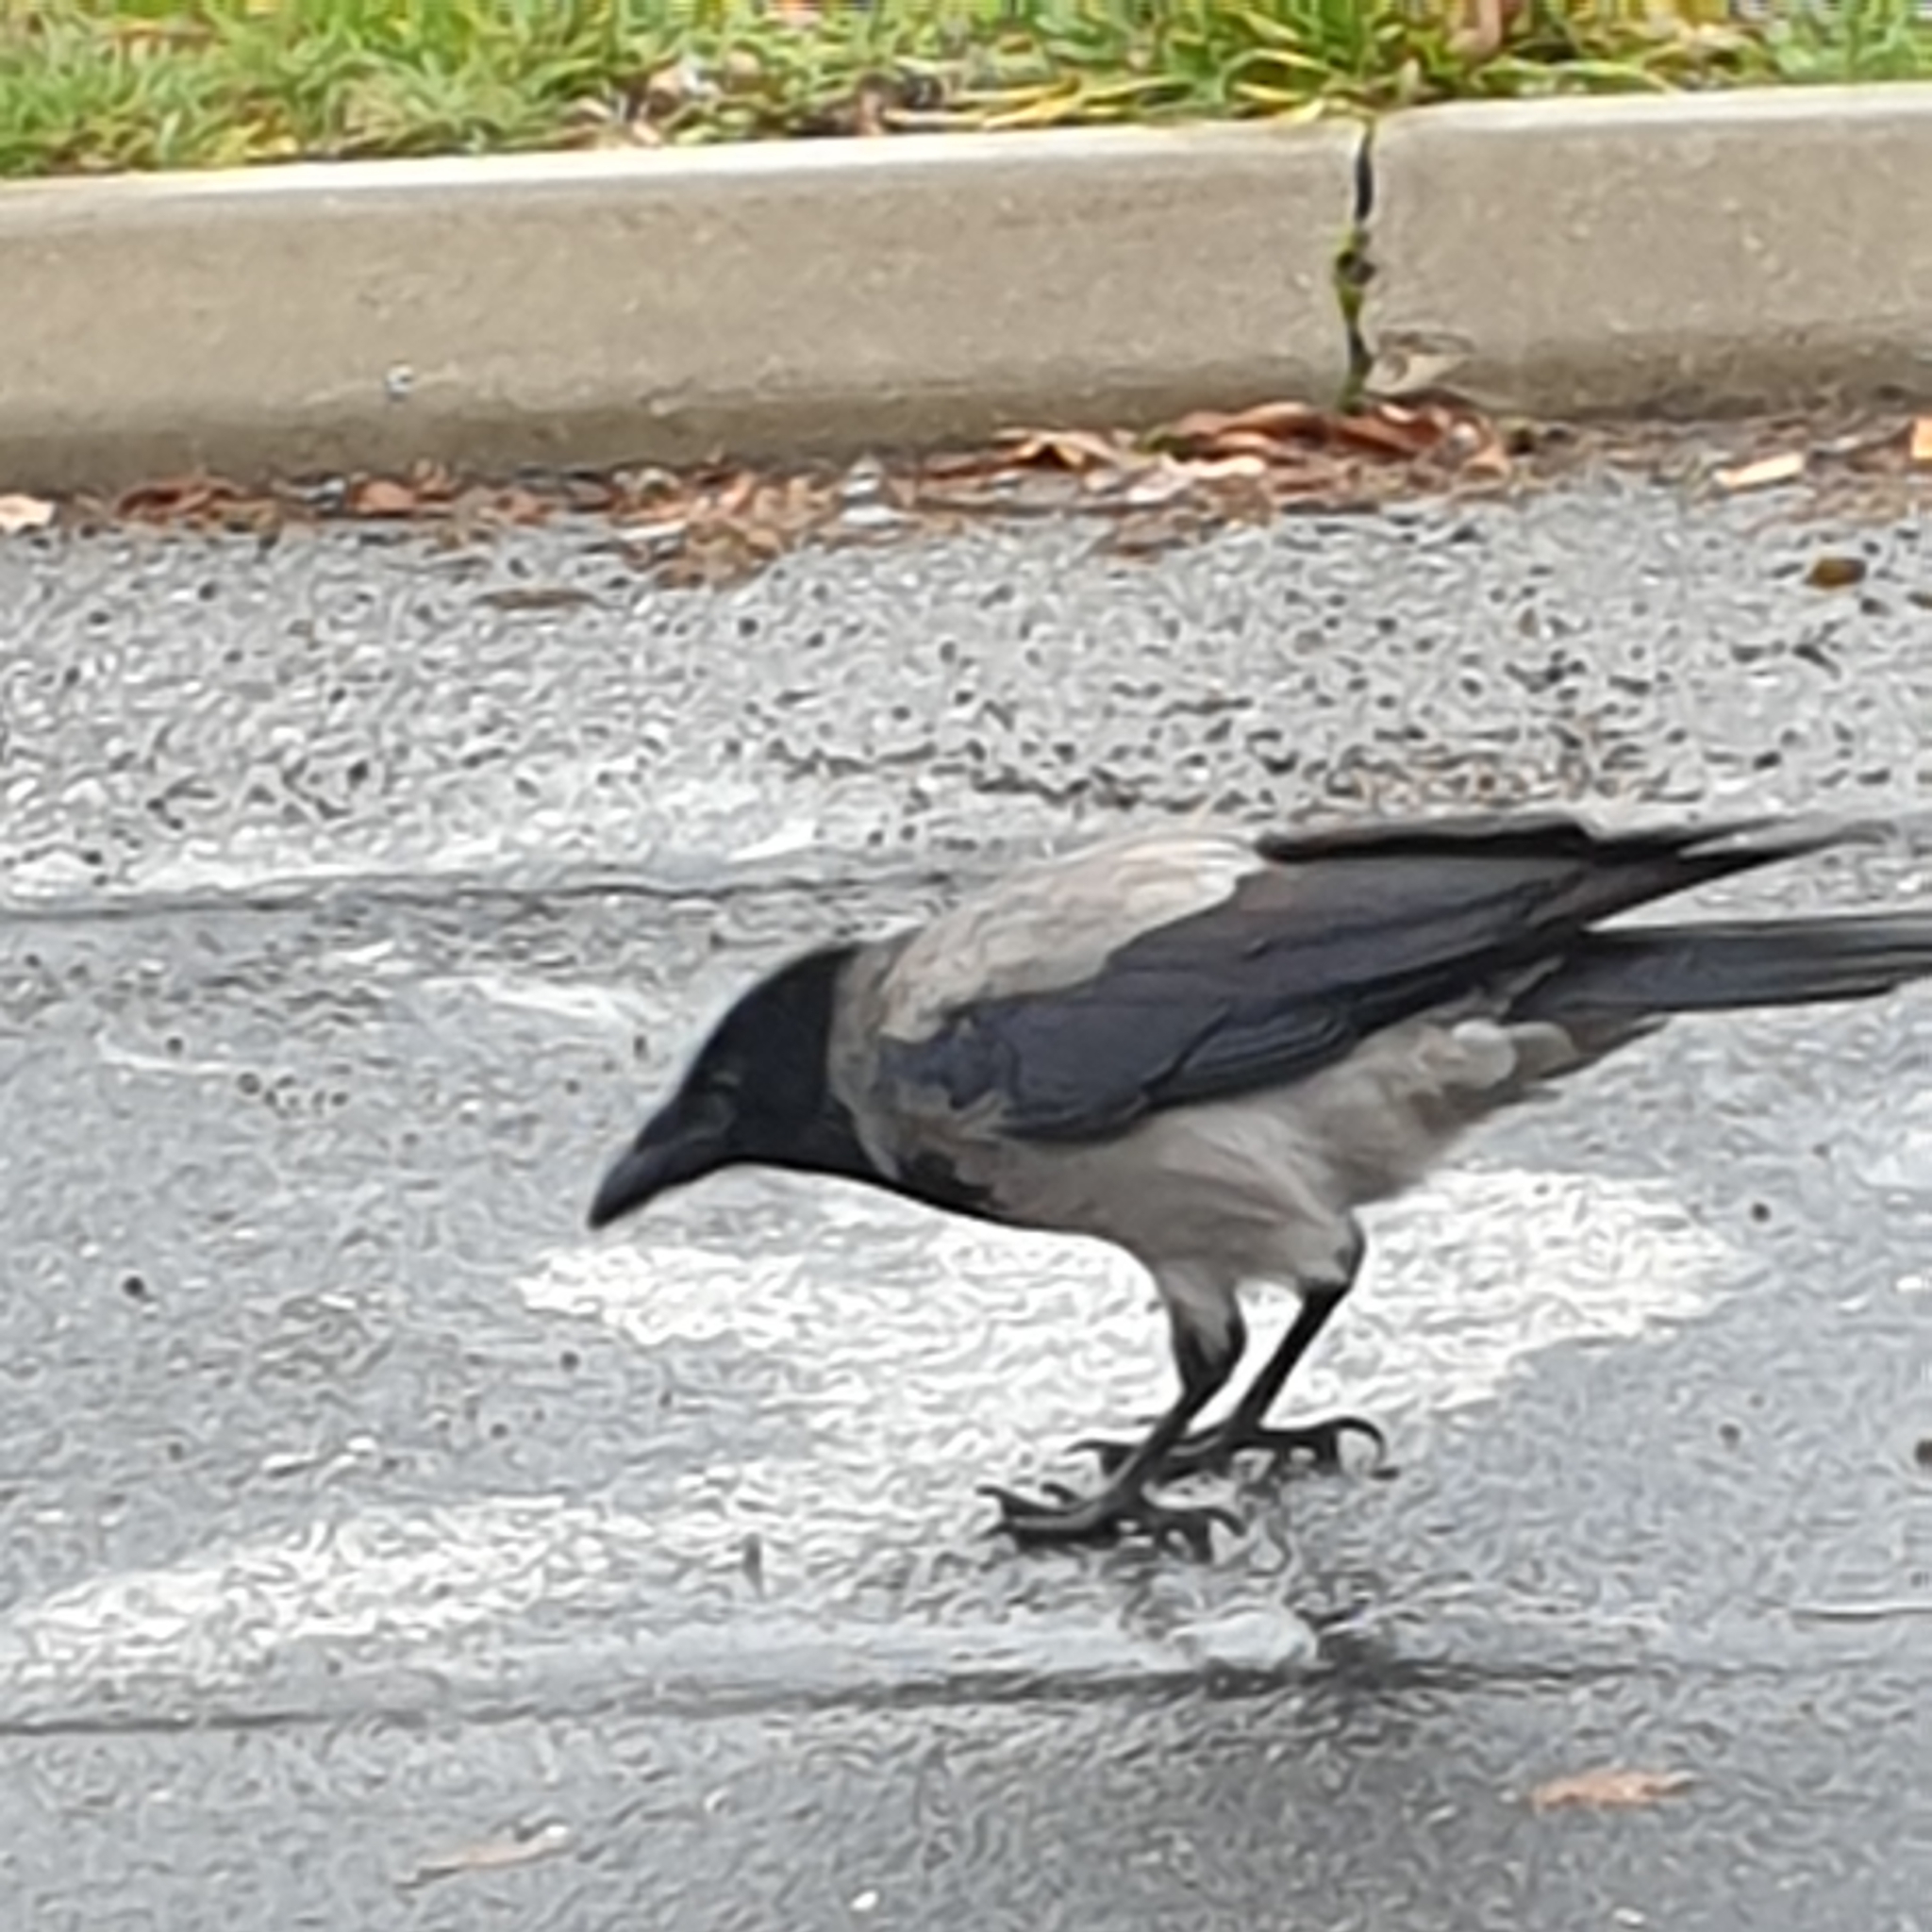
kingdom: Animalia
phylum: Chordata
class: Aves
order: Passeriformes
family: Corvidae
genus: Corvus
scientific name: Corvus cornix
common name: Hooded crow
